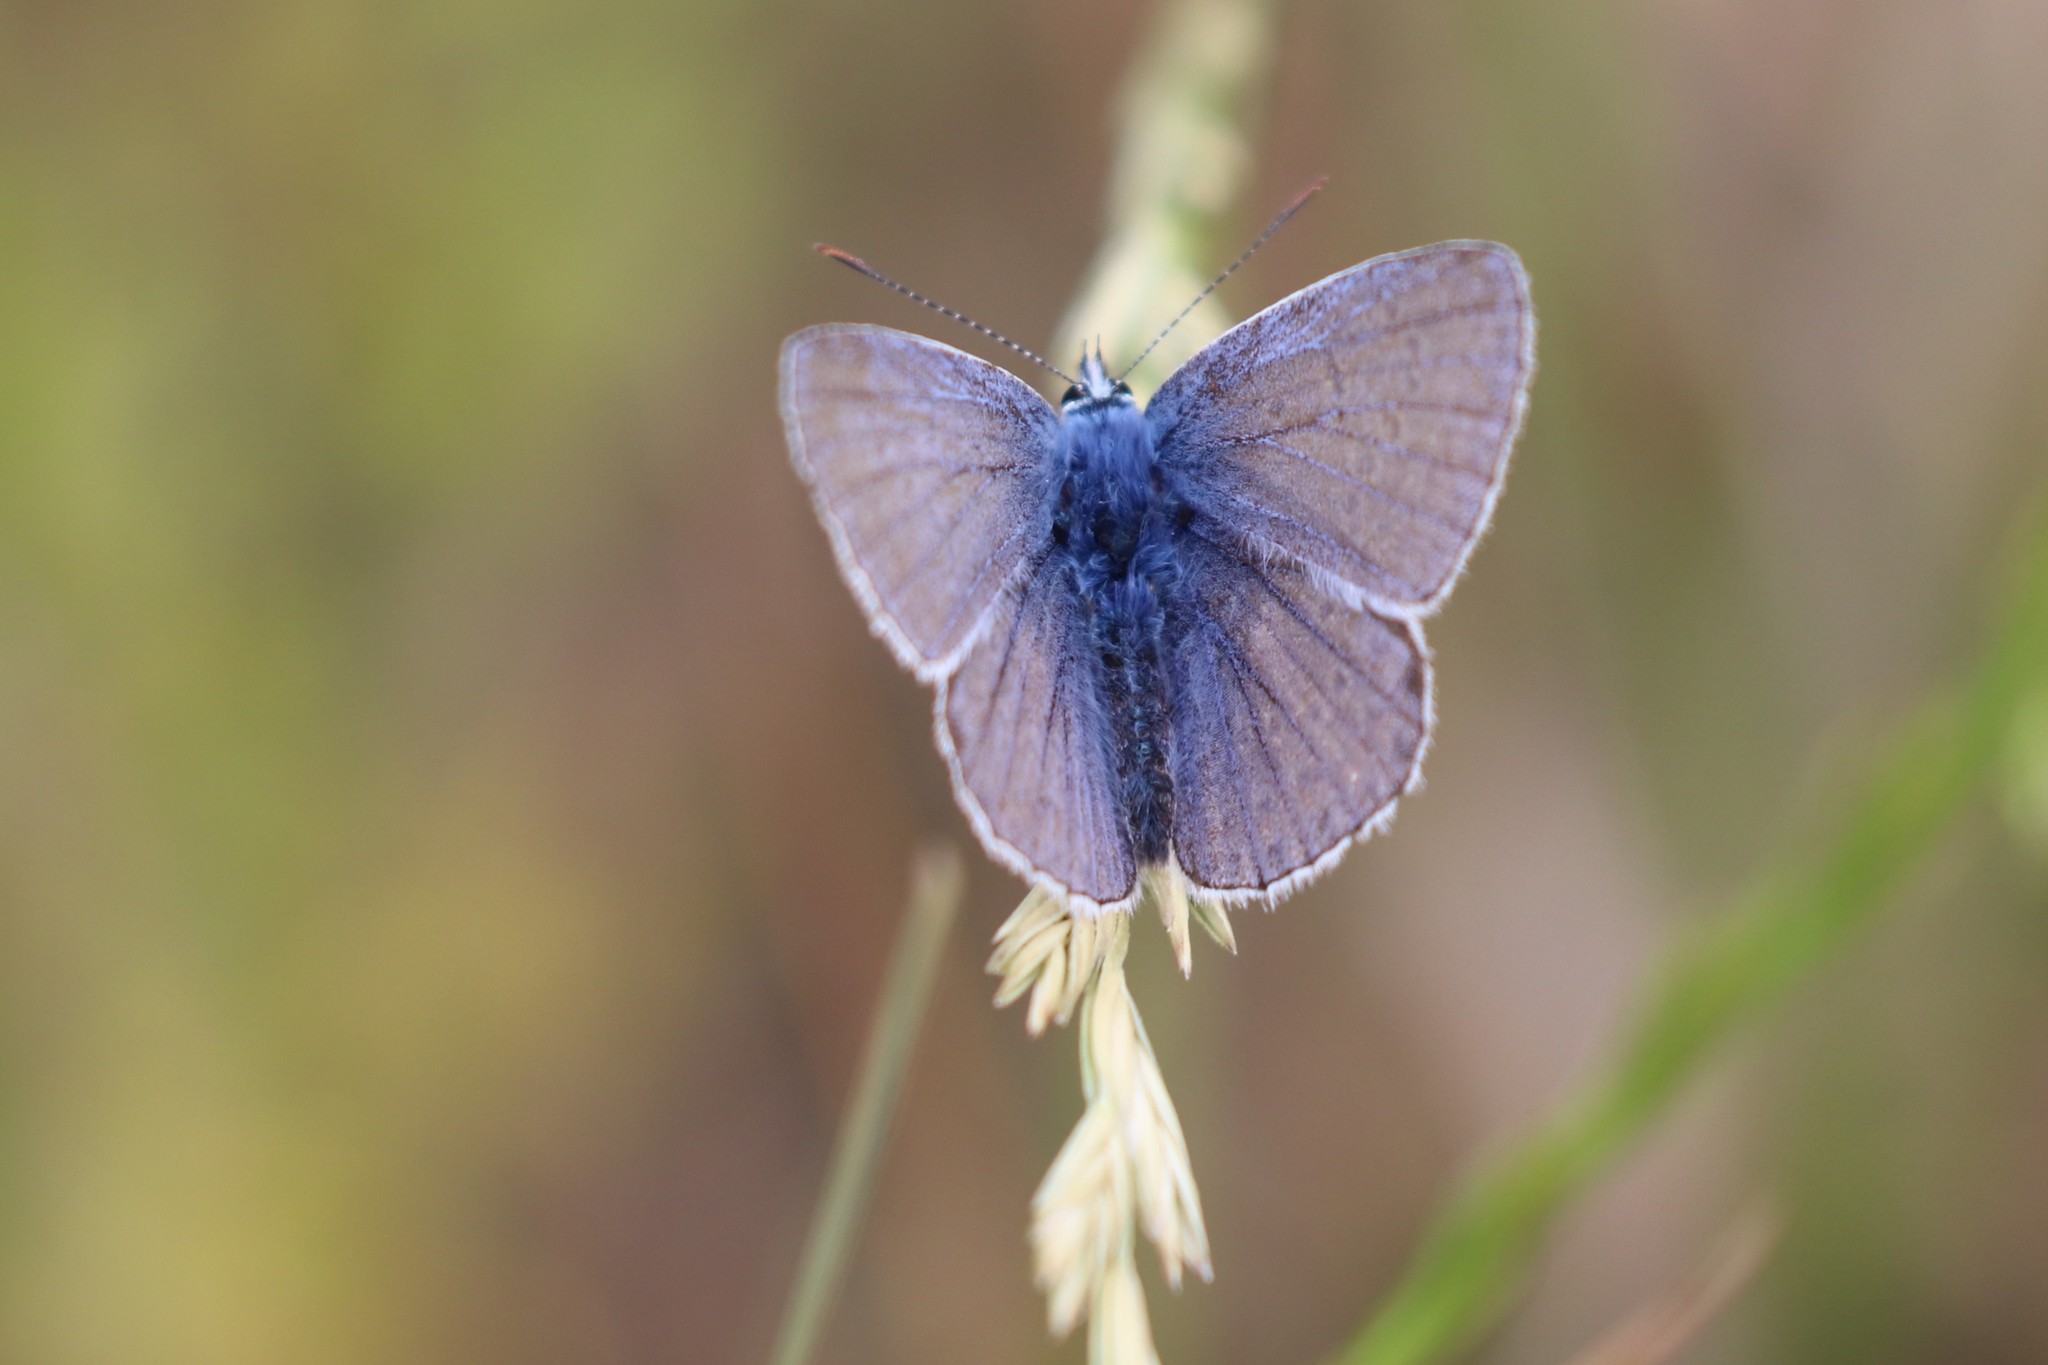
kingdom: Animalia
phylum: Arthropoda
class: Insecta
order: Lepidoptera
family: Lycaenidae
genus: Polyommatus
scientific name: Polyommatus icarus
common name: Common blue
